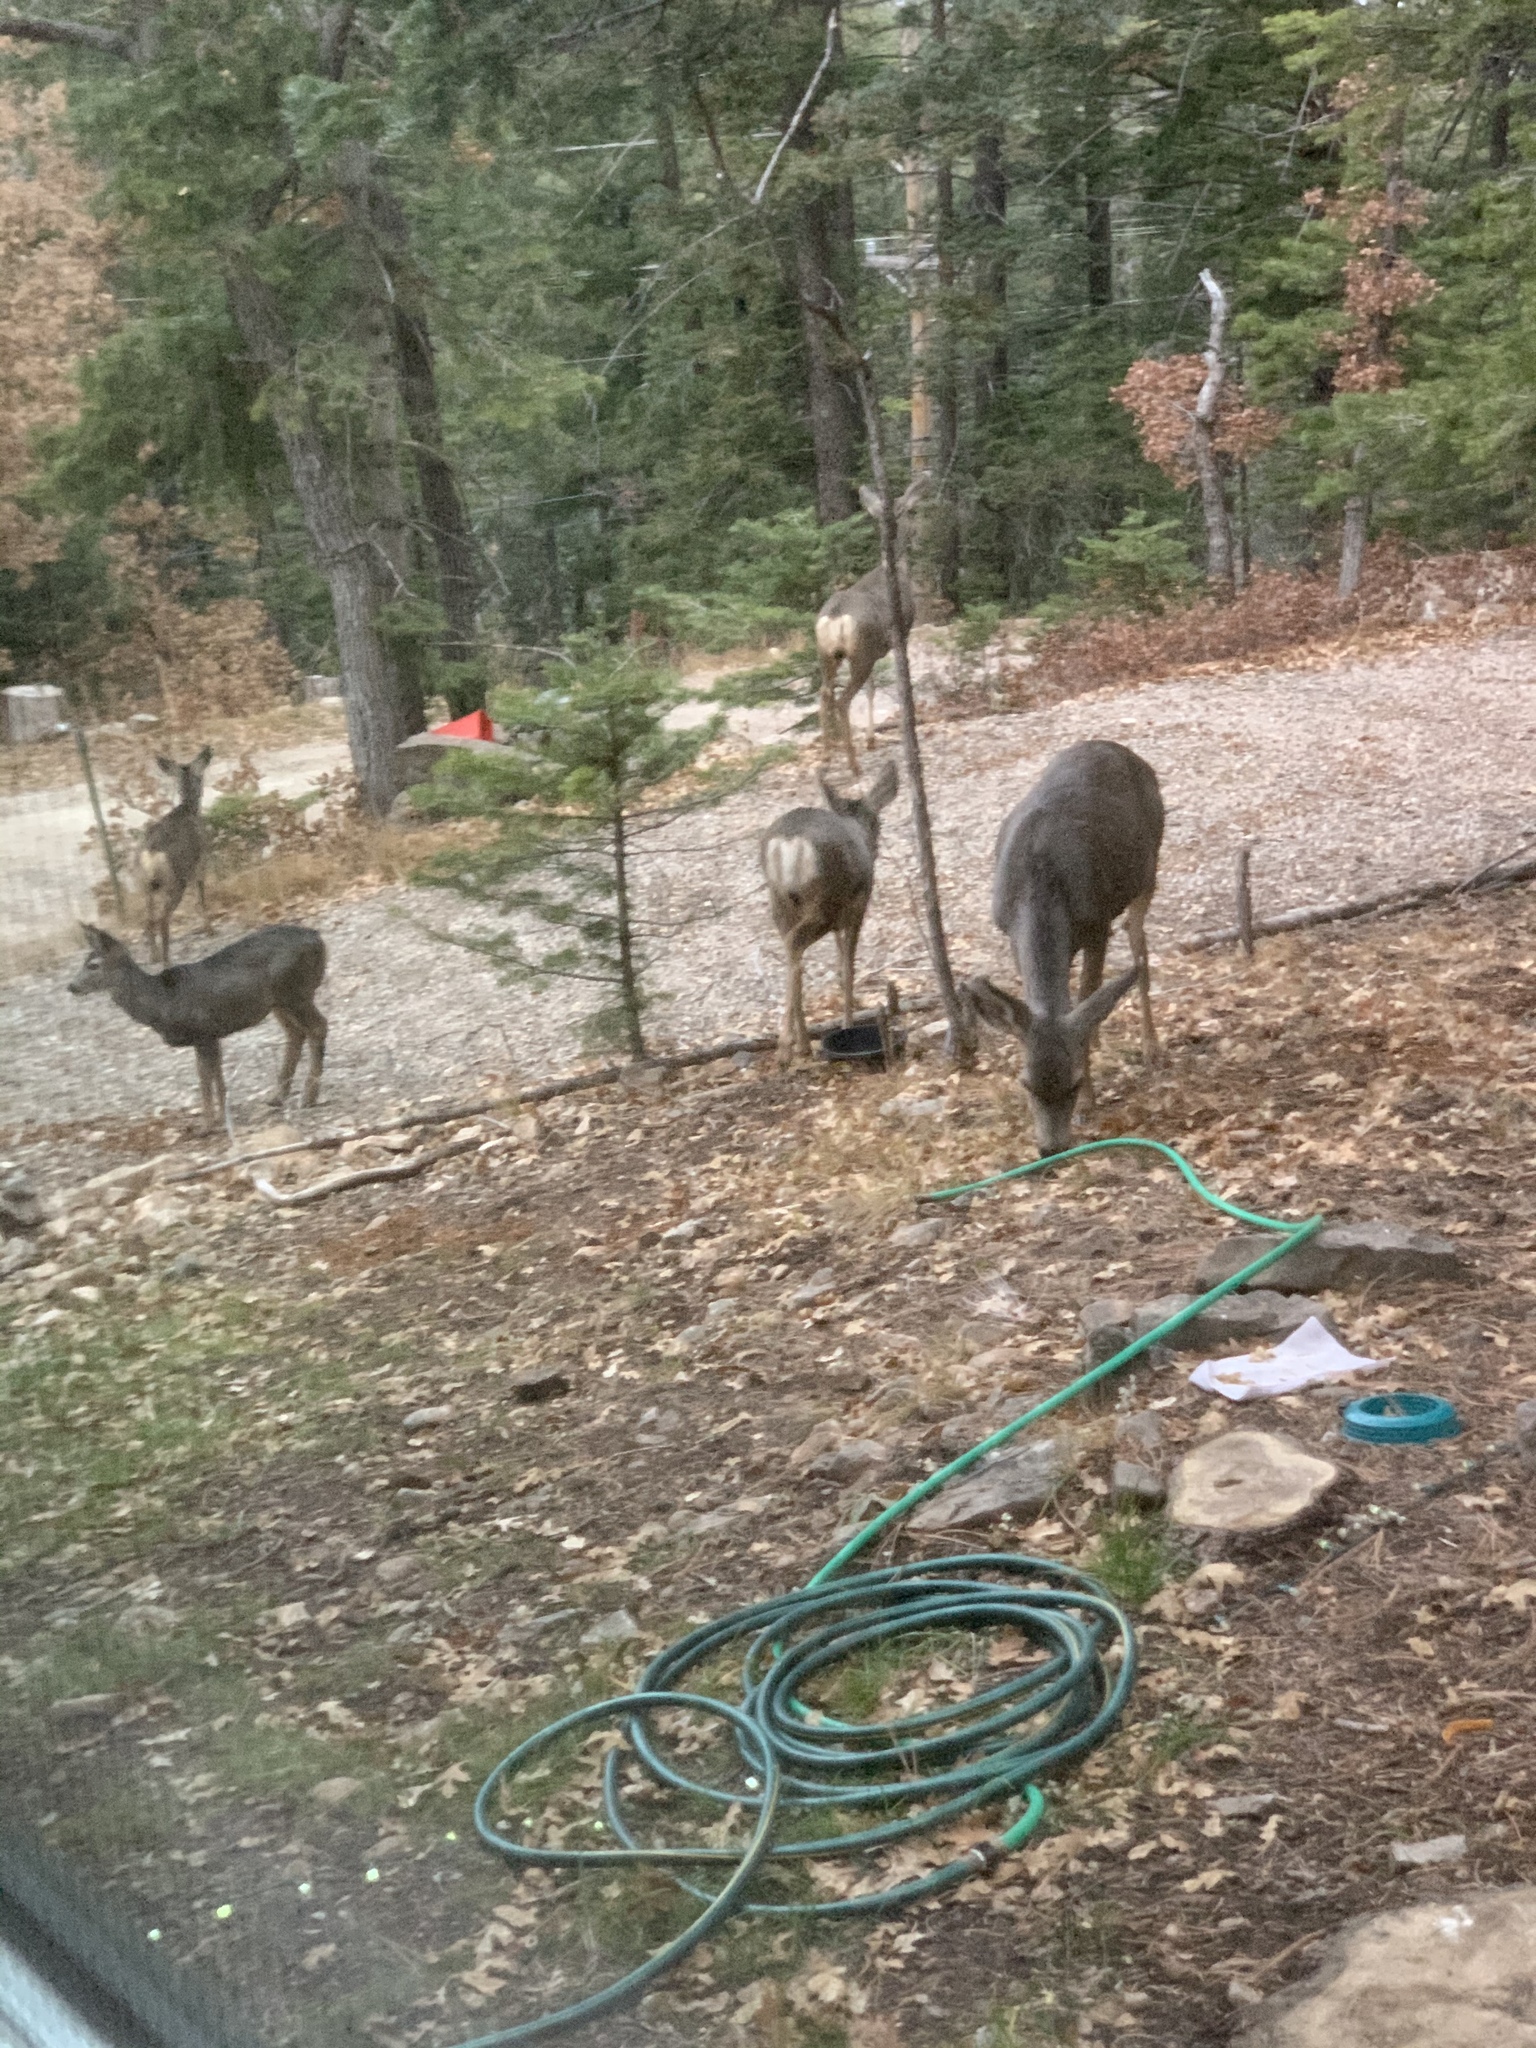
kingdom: Animalia
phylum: Chordata
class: Mammalia
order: Artiodactyla
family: Cervidae
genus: Odocoileus
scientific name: Odocoileus hemionus
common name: Mule deer
